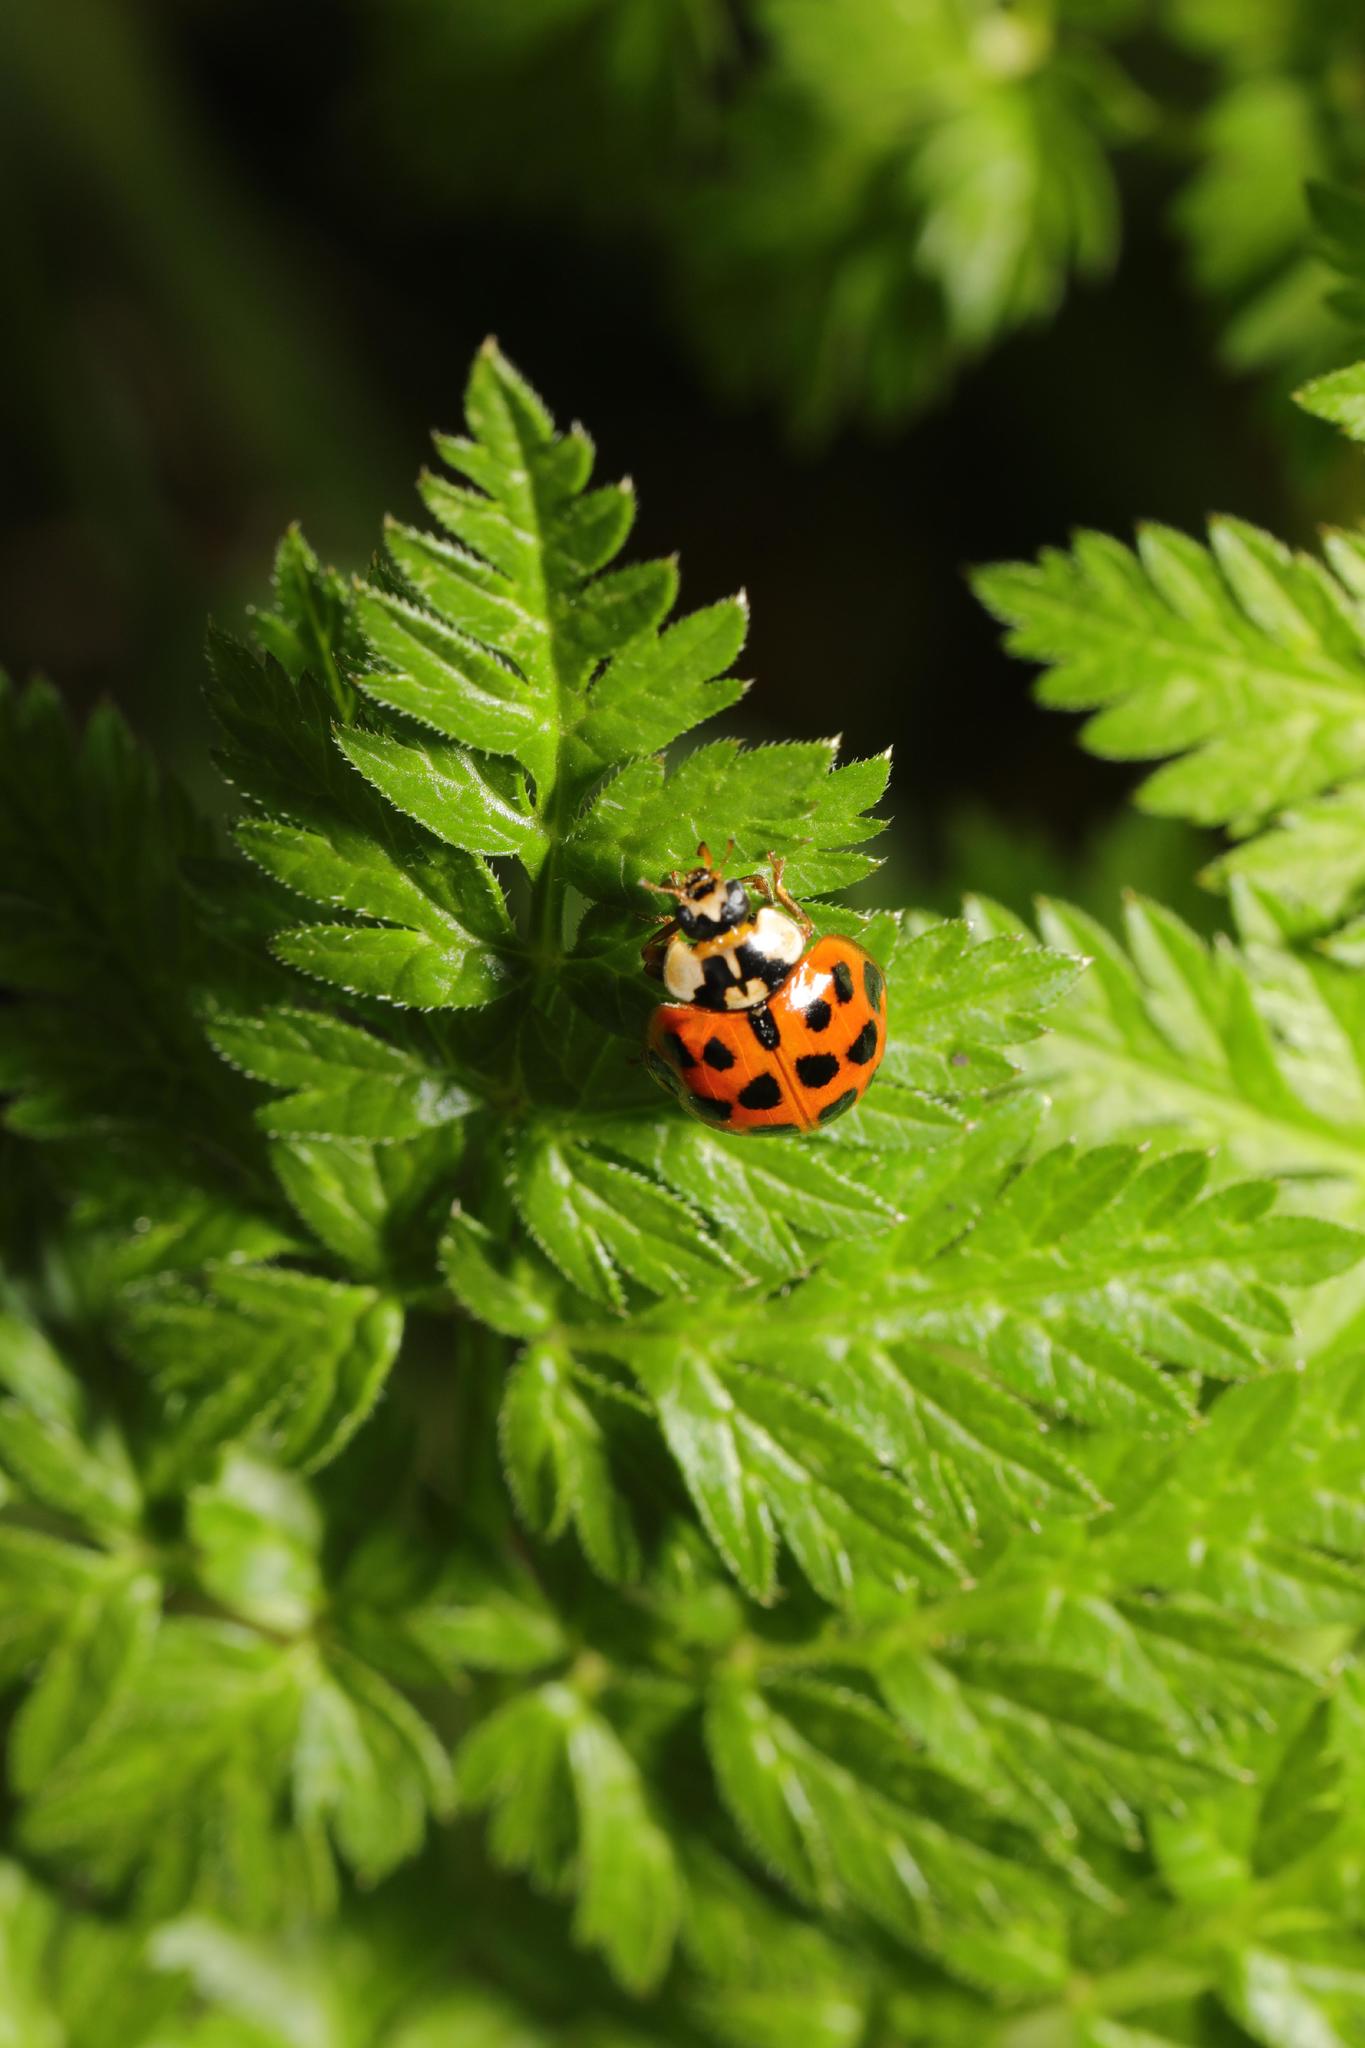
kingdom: Animalia
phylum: Arthropoda
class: Insecta
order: Coleoptera
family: Coccinellidae
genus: Harmonia
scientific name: Harmonia axyridis
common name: Harlequin ladybird
